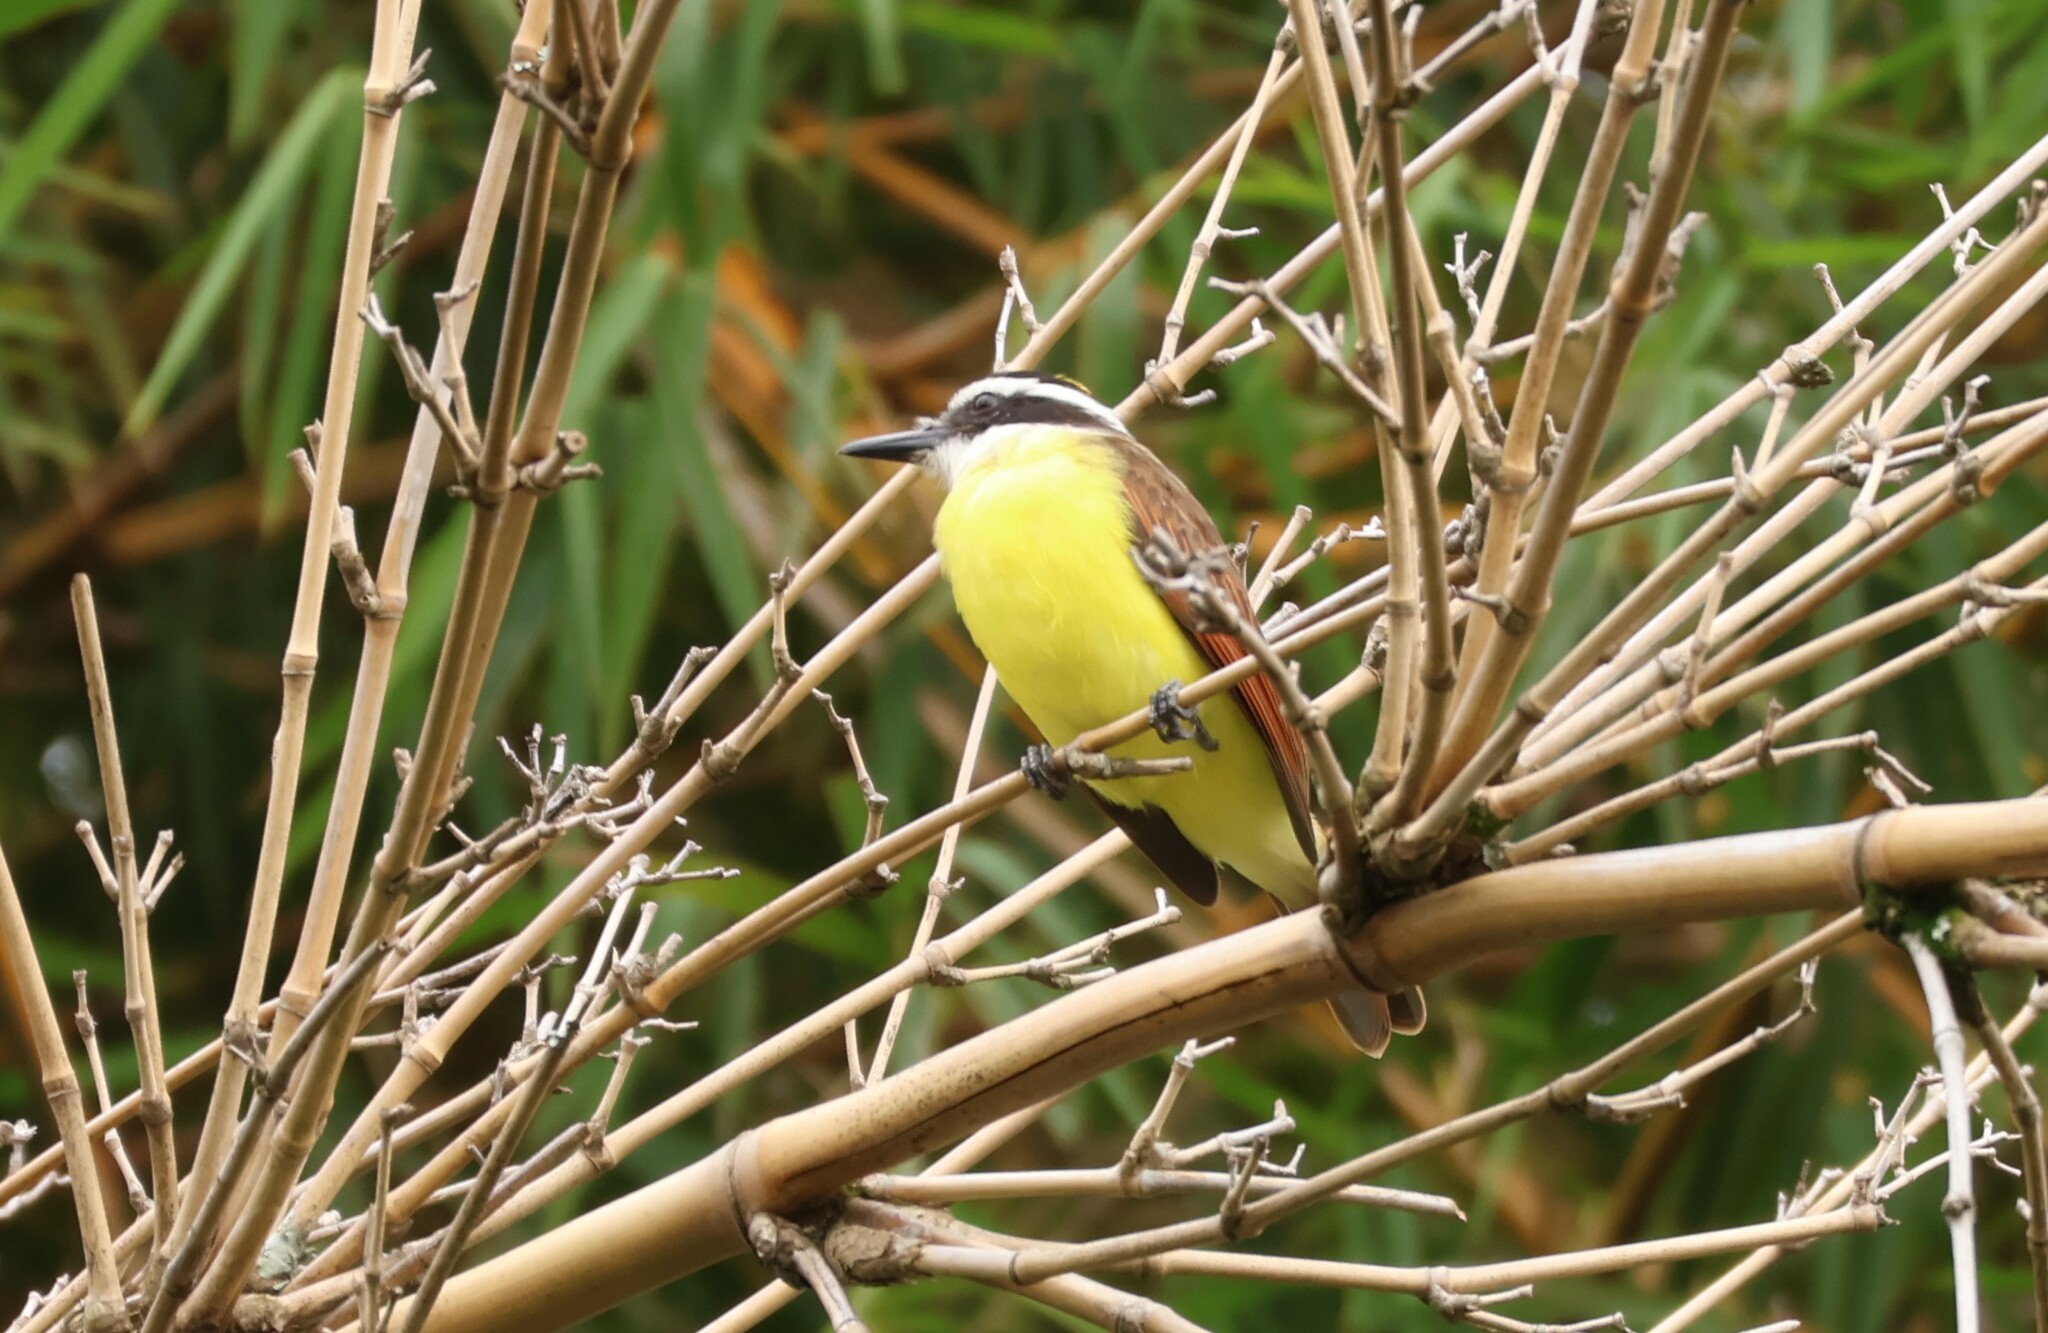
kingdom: Animalia
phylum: Chordata
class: Aves
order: Passeriformes
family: Tyrannidae
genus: Pitangus
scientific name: Pitangus sulphuratus
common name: Great kiskadee
